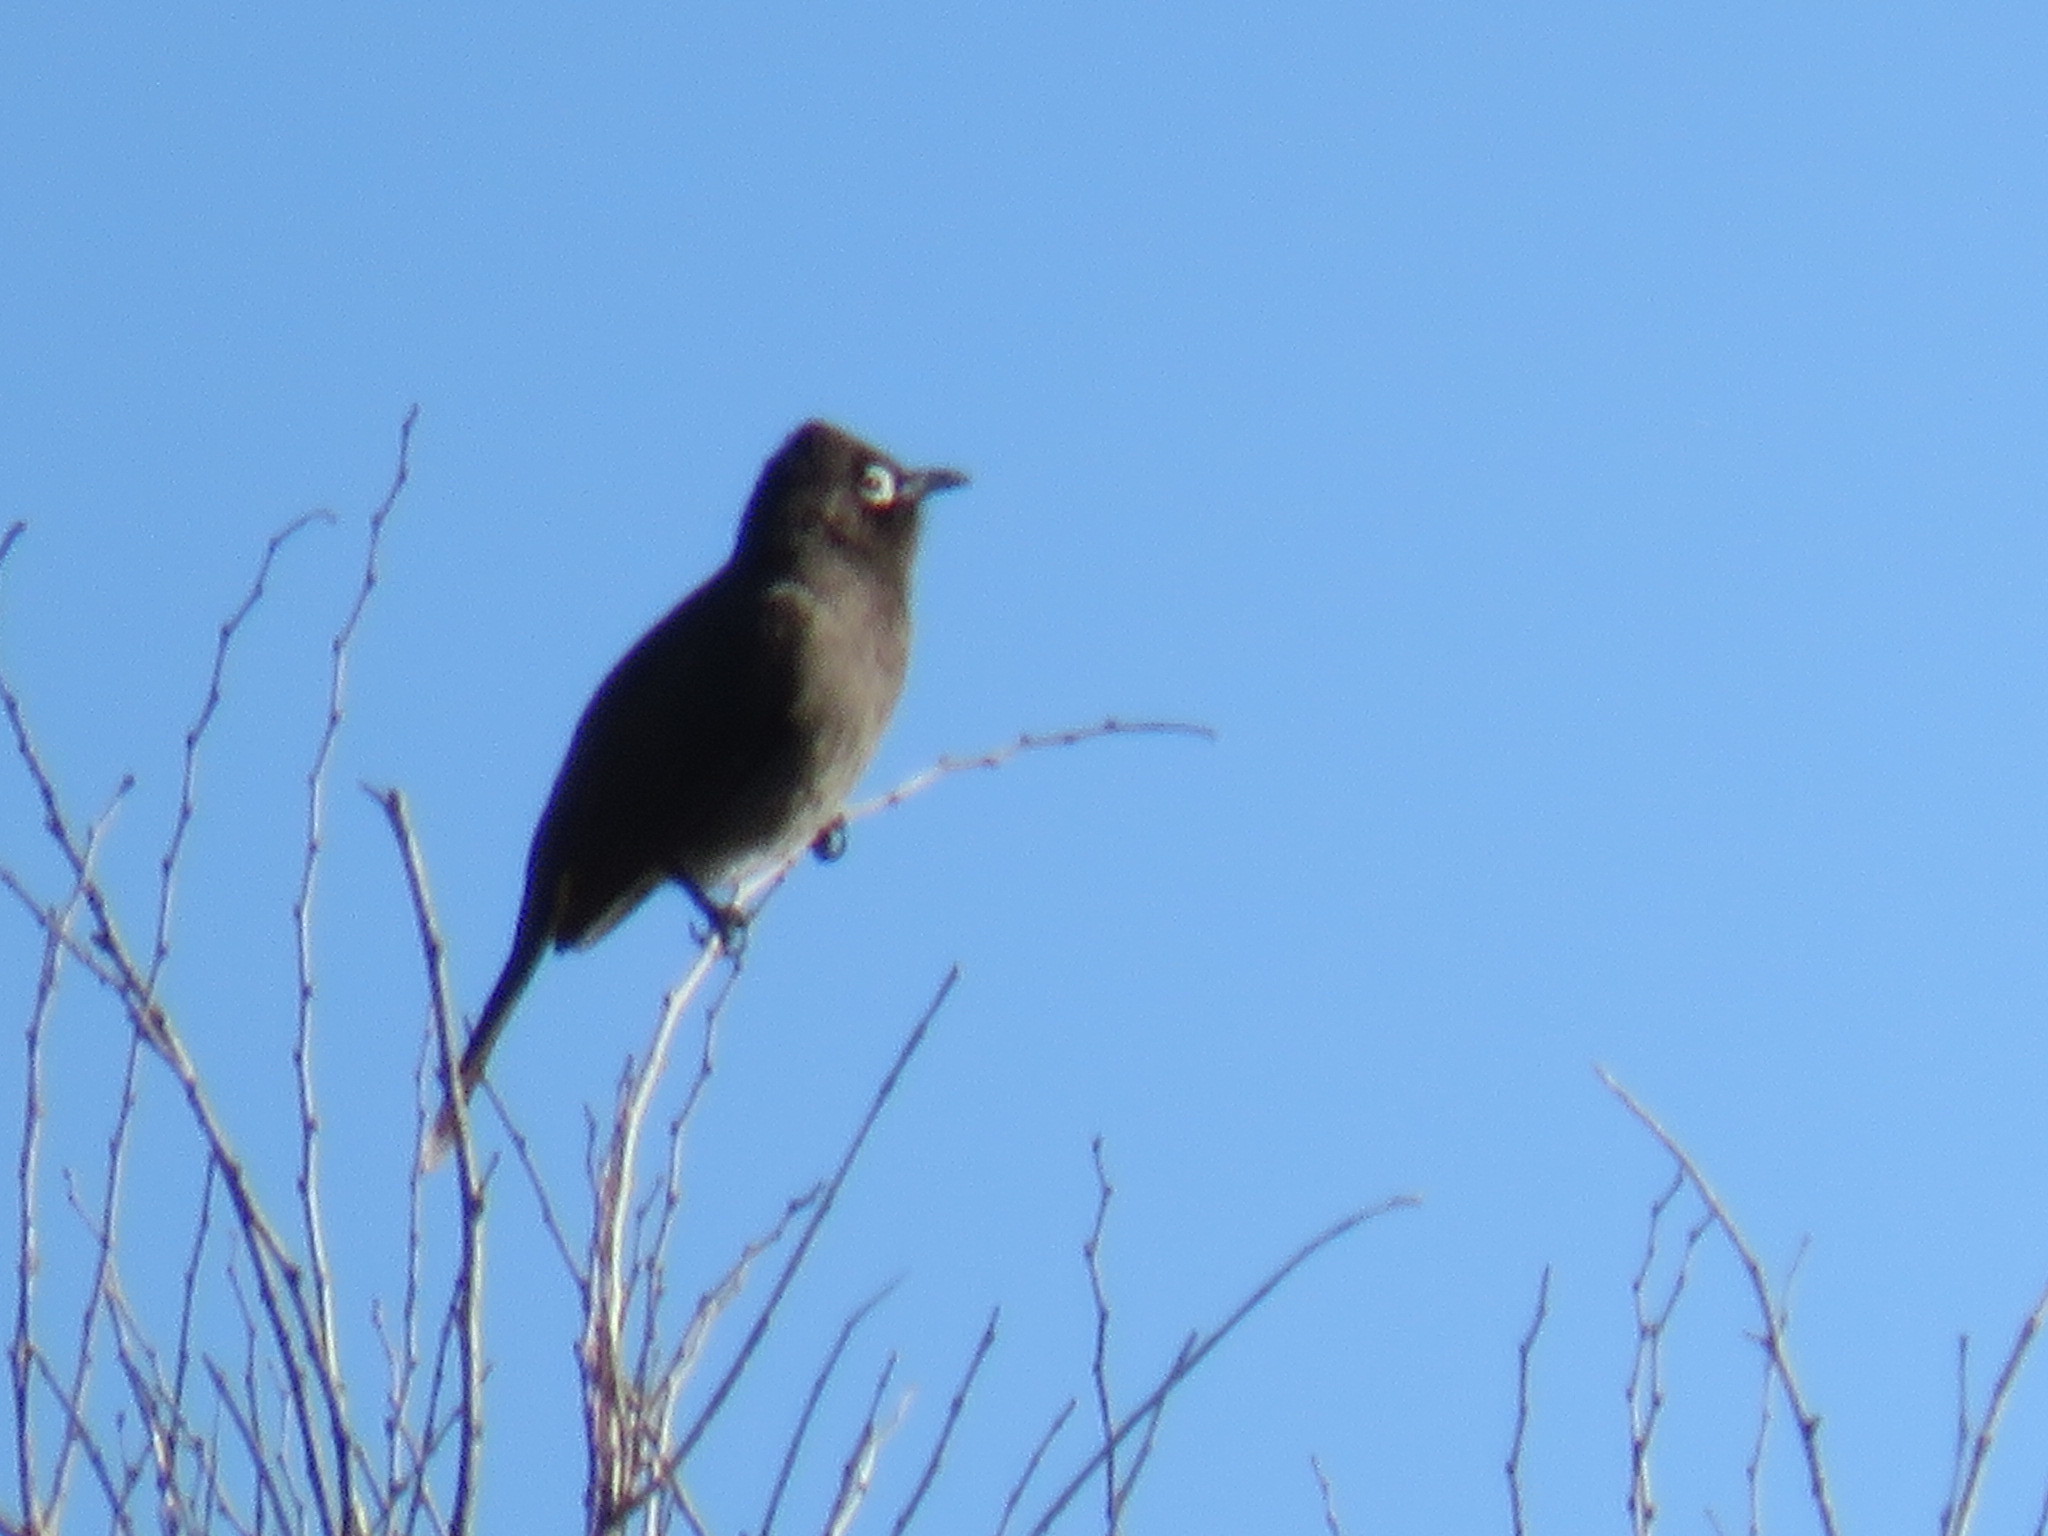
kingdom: Animalia
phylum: Chordata
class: Aves
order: Passeriformes
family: Pycnonotidae
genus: Pycnonotus
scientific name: Pycnonotus capensis
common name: Cape bulbul
